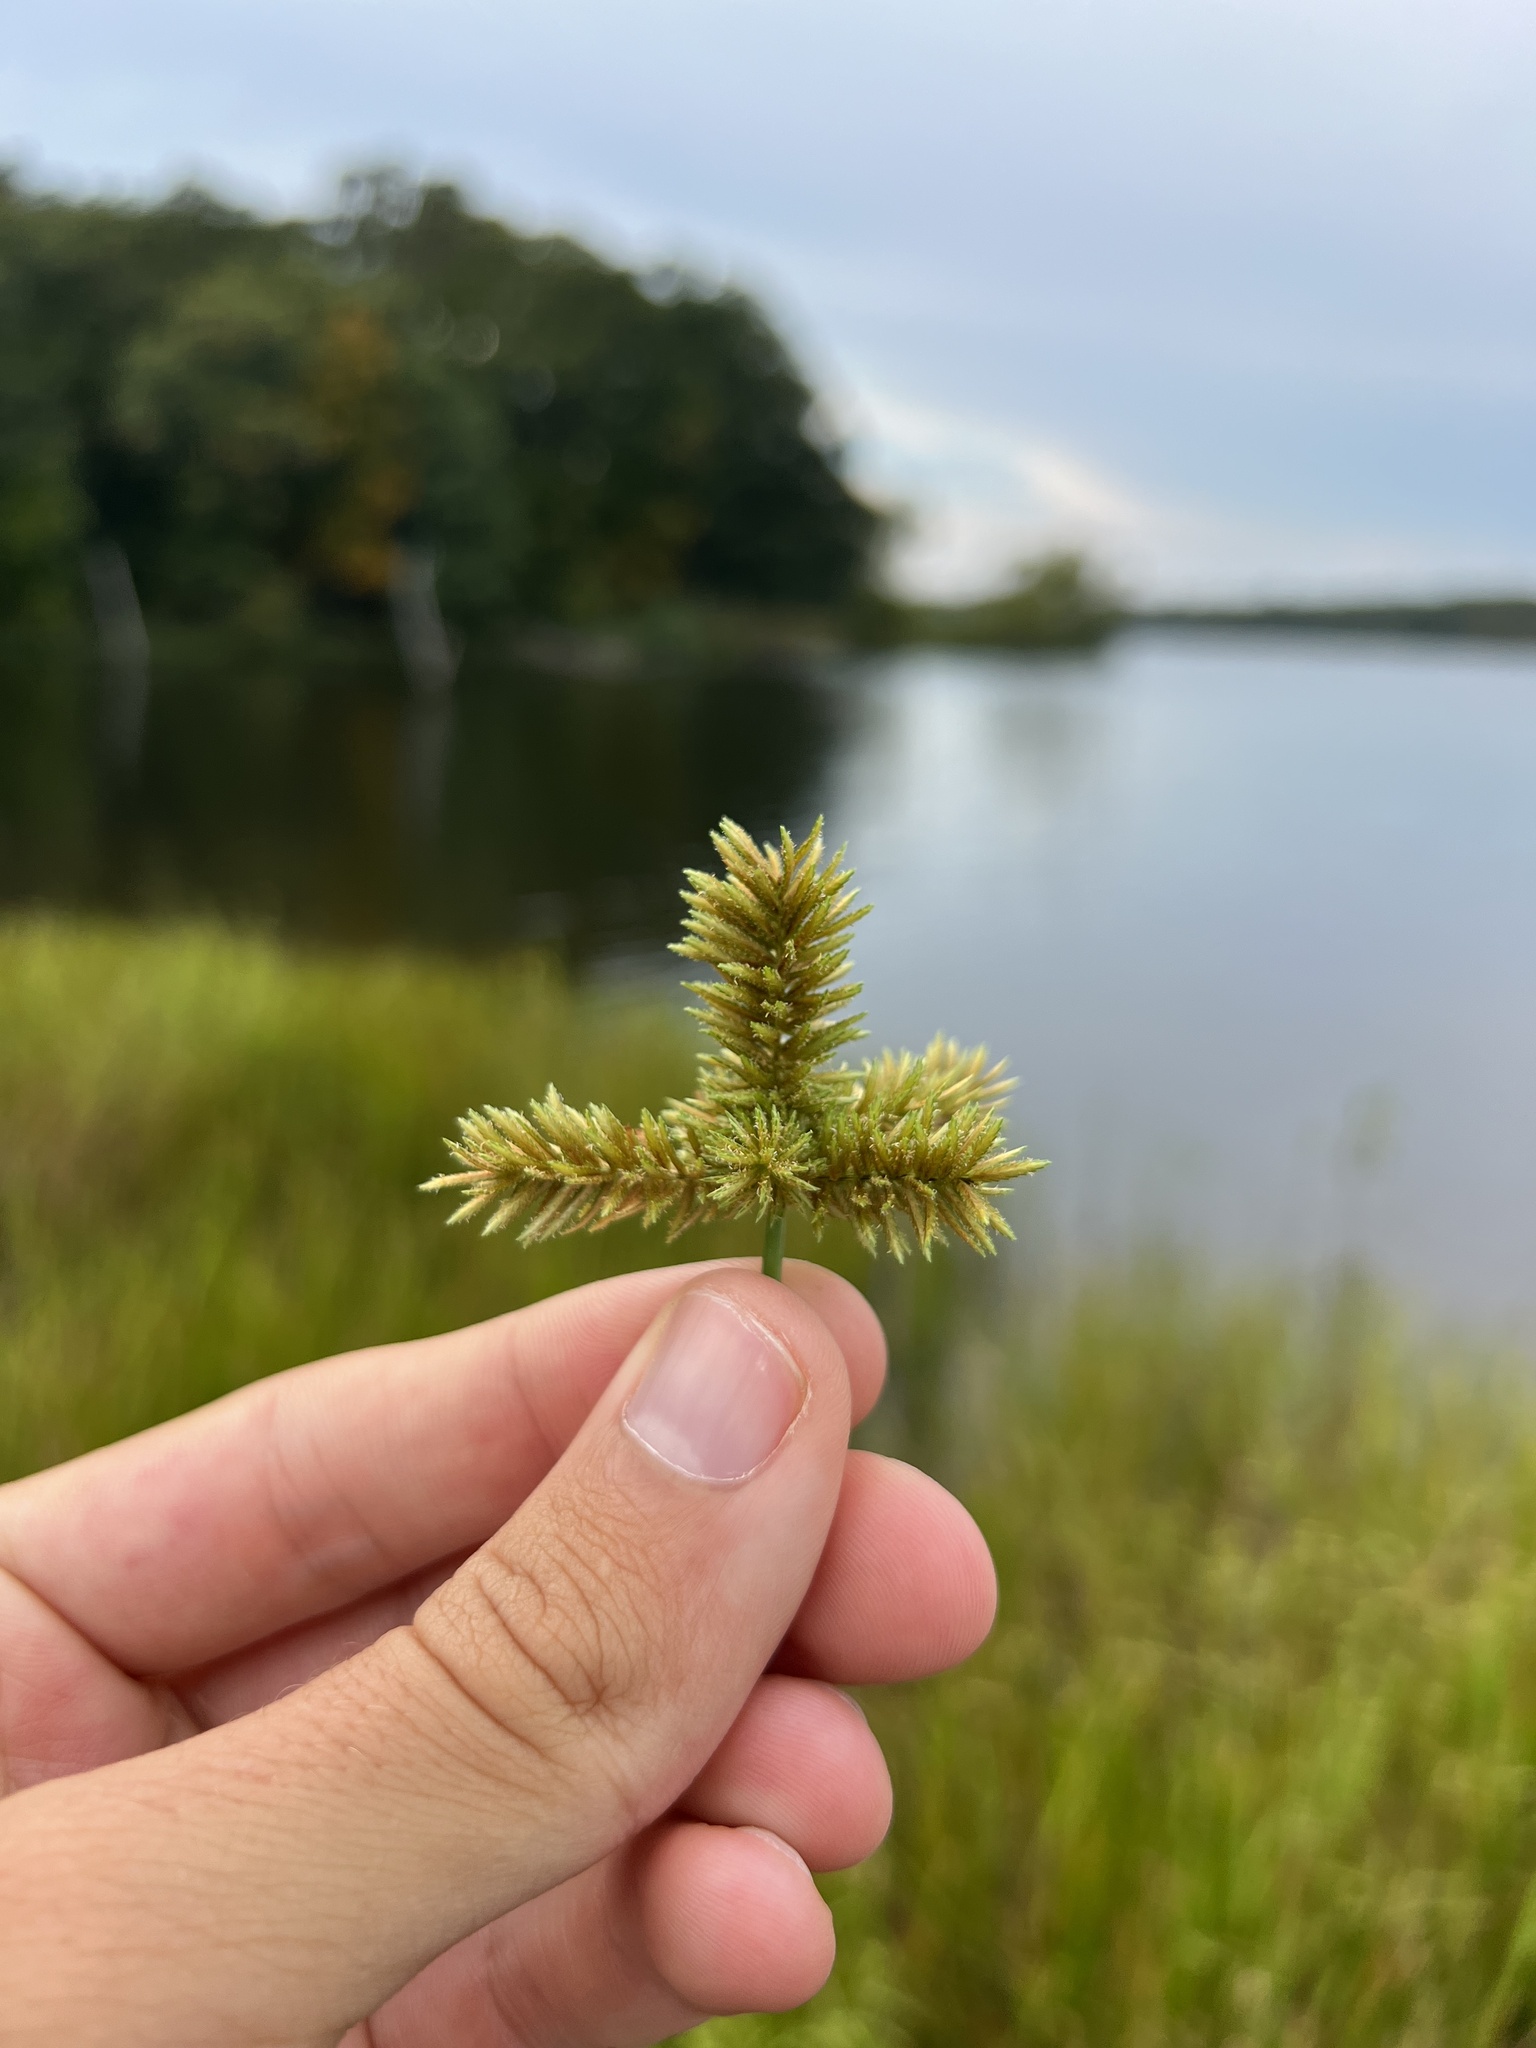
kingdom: Plantae
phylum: Tracheophyta
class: Liliopsida
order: Poales
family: Cyperaceae
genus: Cyperus
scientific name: Cyperus erythrorhizos
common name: Red-root flat sedge
